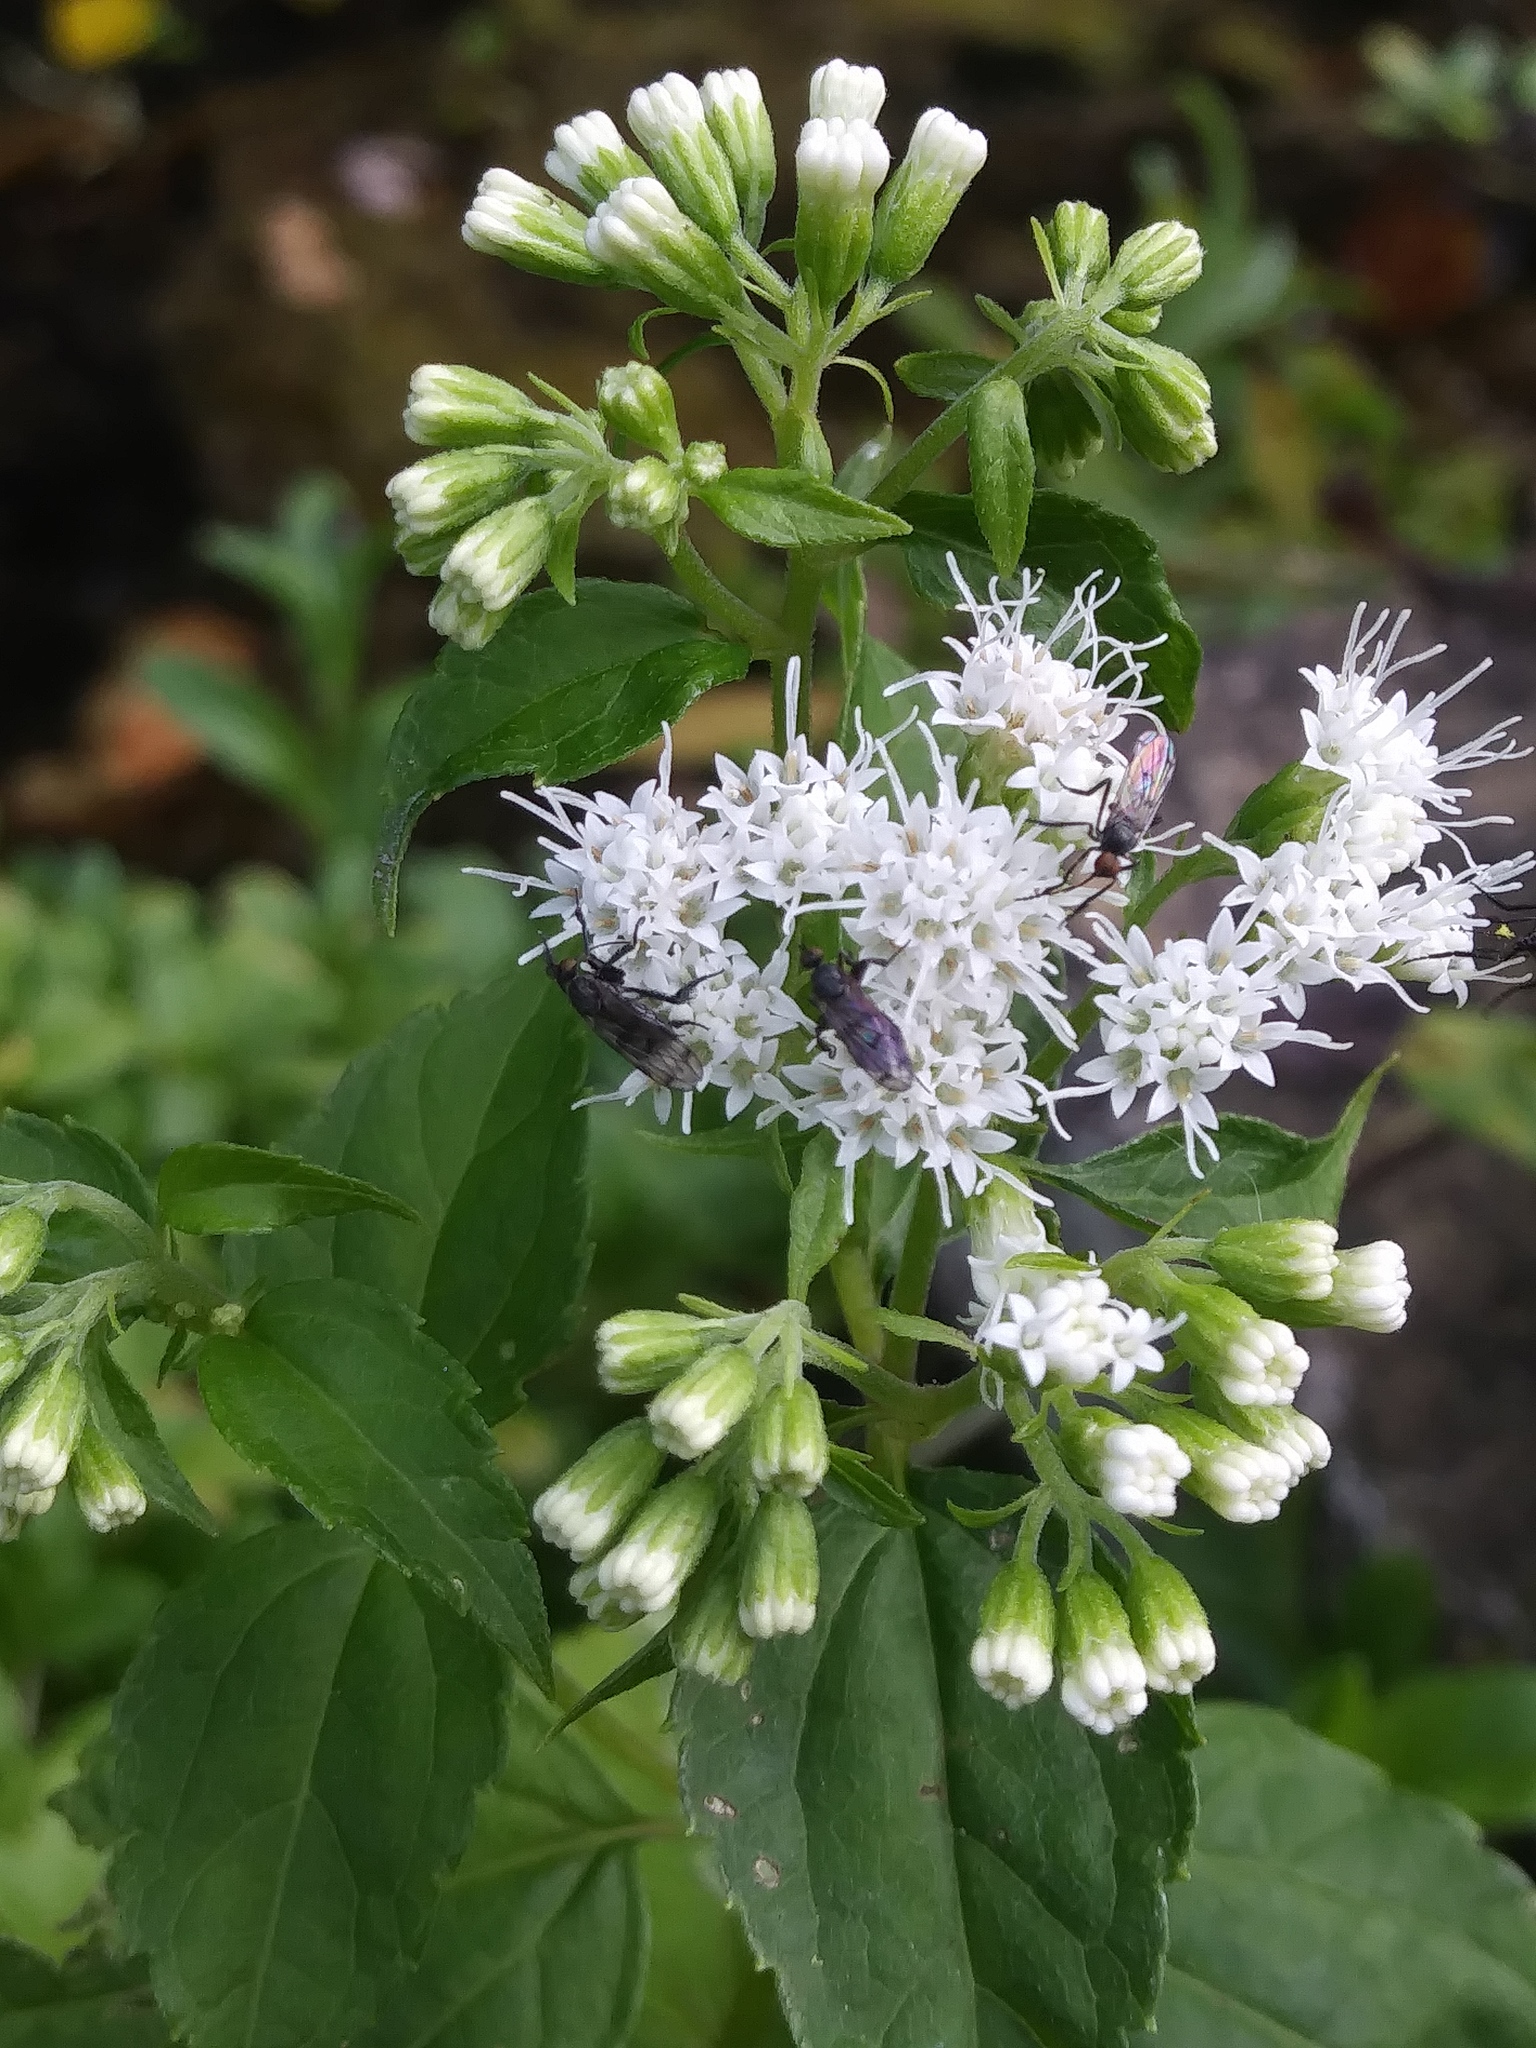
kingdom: Plantae
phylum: Tracheophyta
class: Magnoliopsida
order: Asterales
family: Asteraceae
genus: Ageratina
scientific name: Ageratina altissima
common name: White snakeroot
